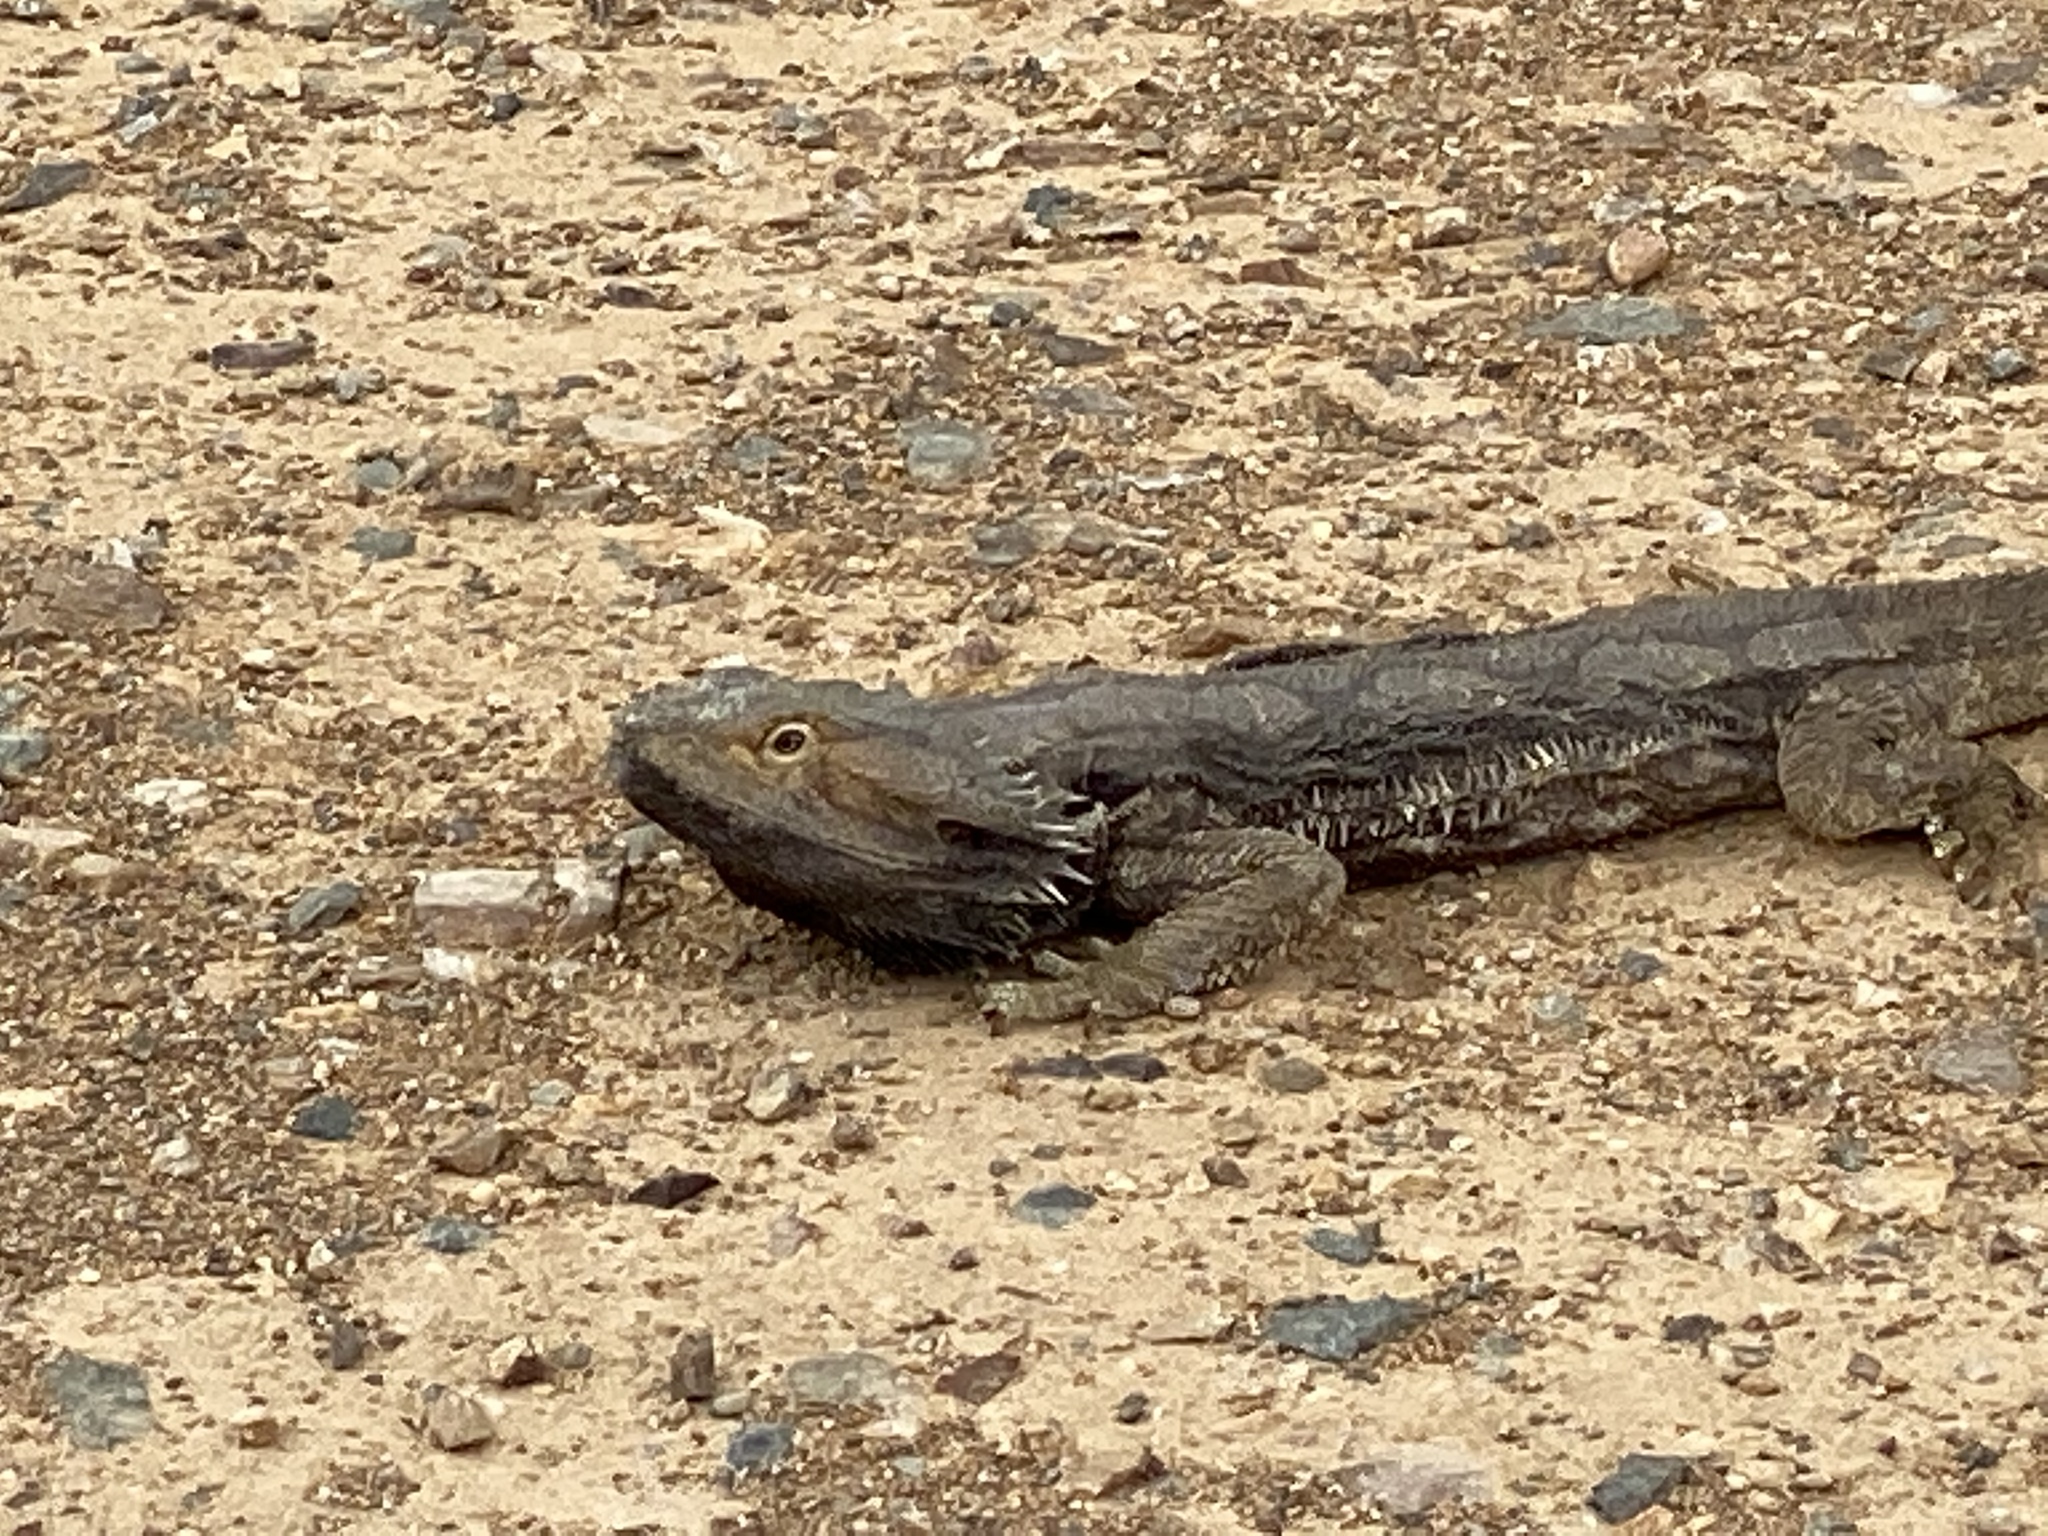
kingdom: Animalia
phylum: Chordata
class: Squamata
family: Agamidae
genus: Pogona
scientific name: Pogona barbata
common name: Bearded dragon
